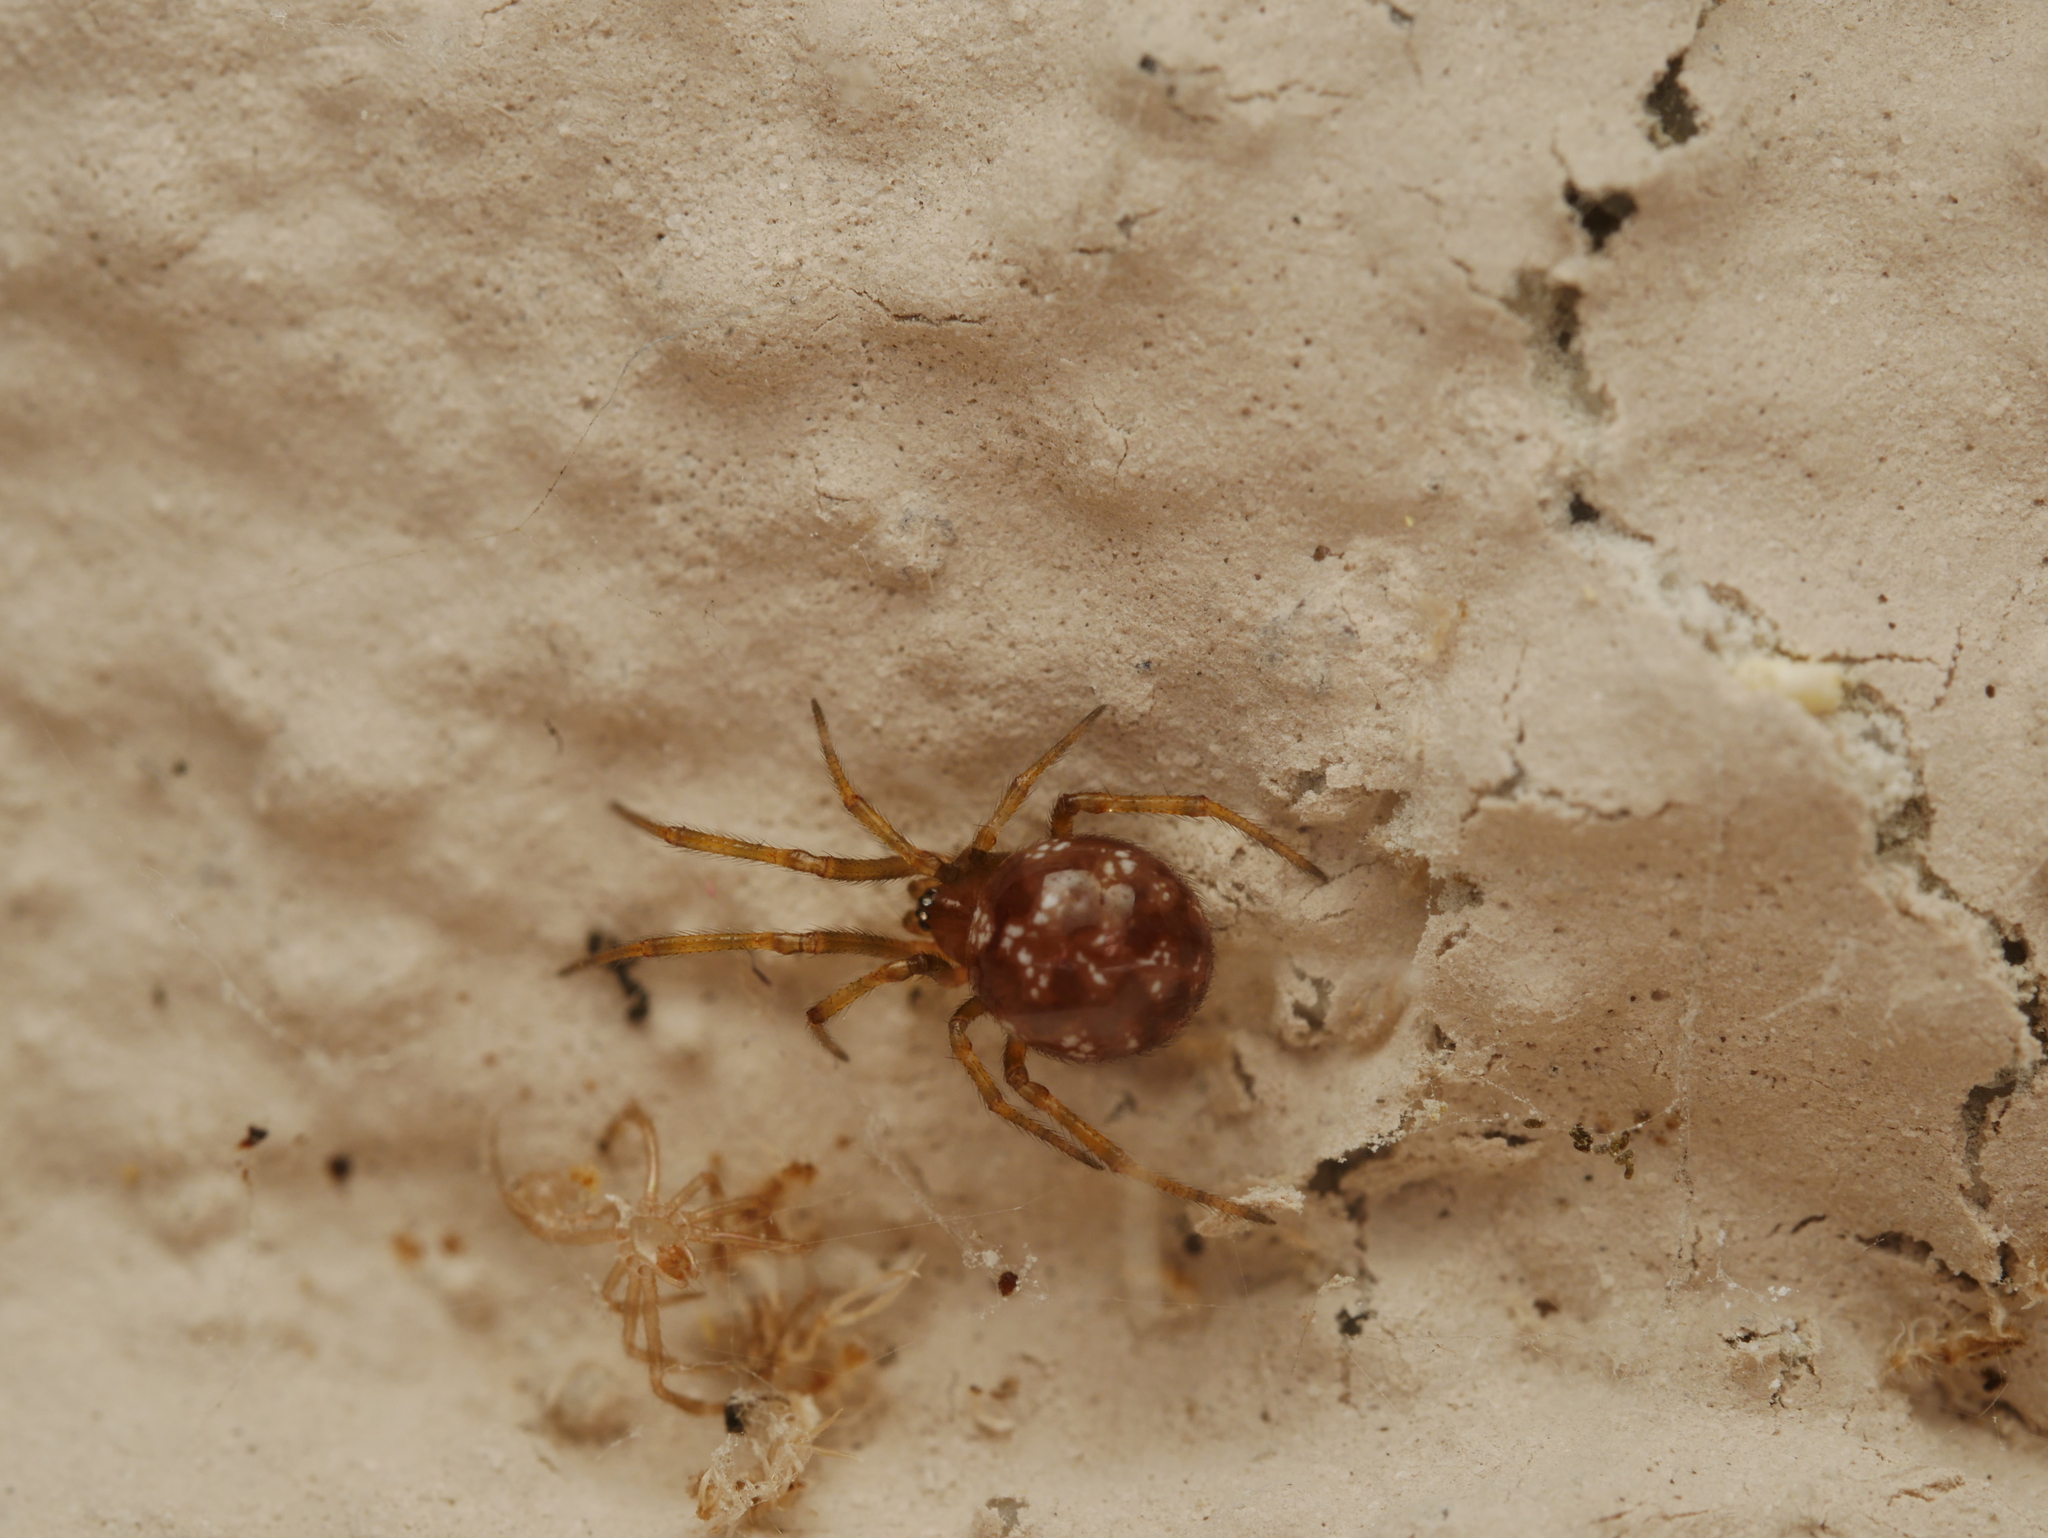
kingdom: Animalia
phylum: Arthropoda
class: Arachnida
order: Araneae
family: Theridiidae
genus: Steatoda
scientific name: Steatoda triangulosa
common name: Triangulate bud spider
